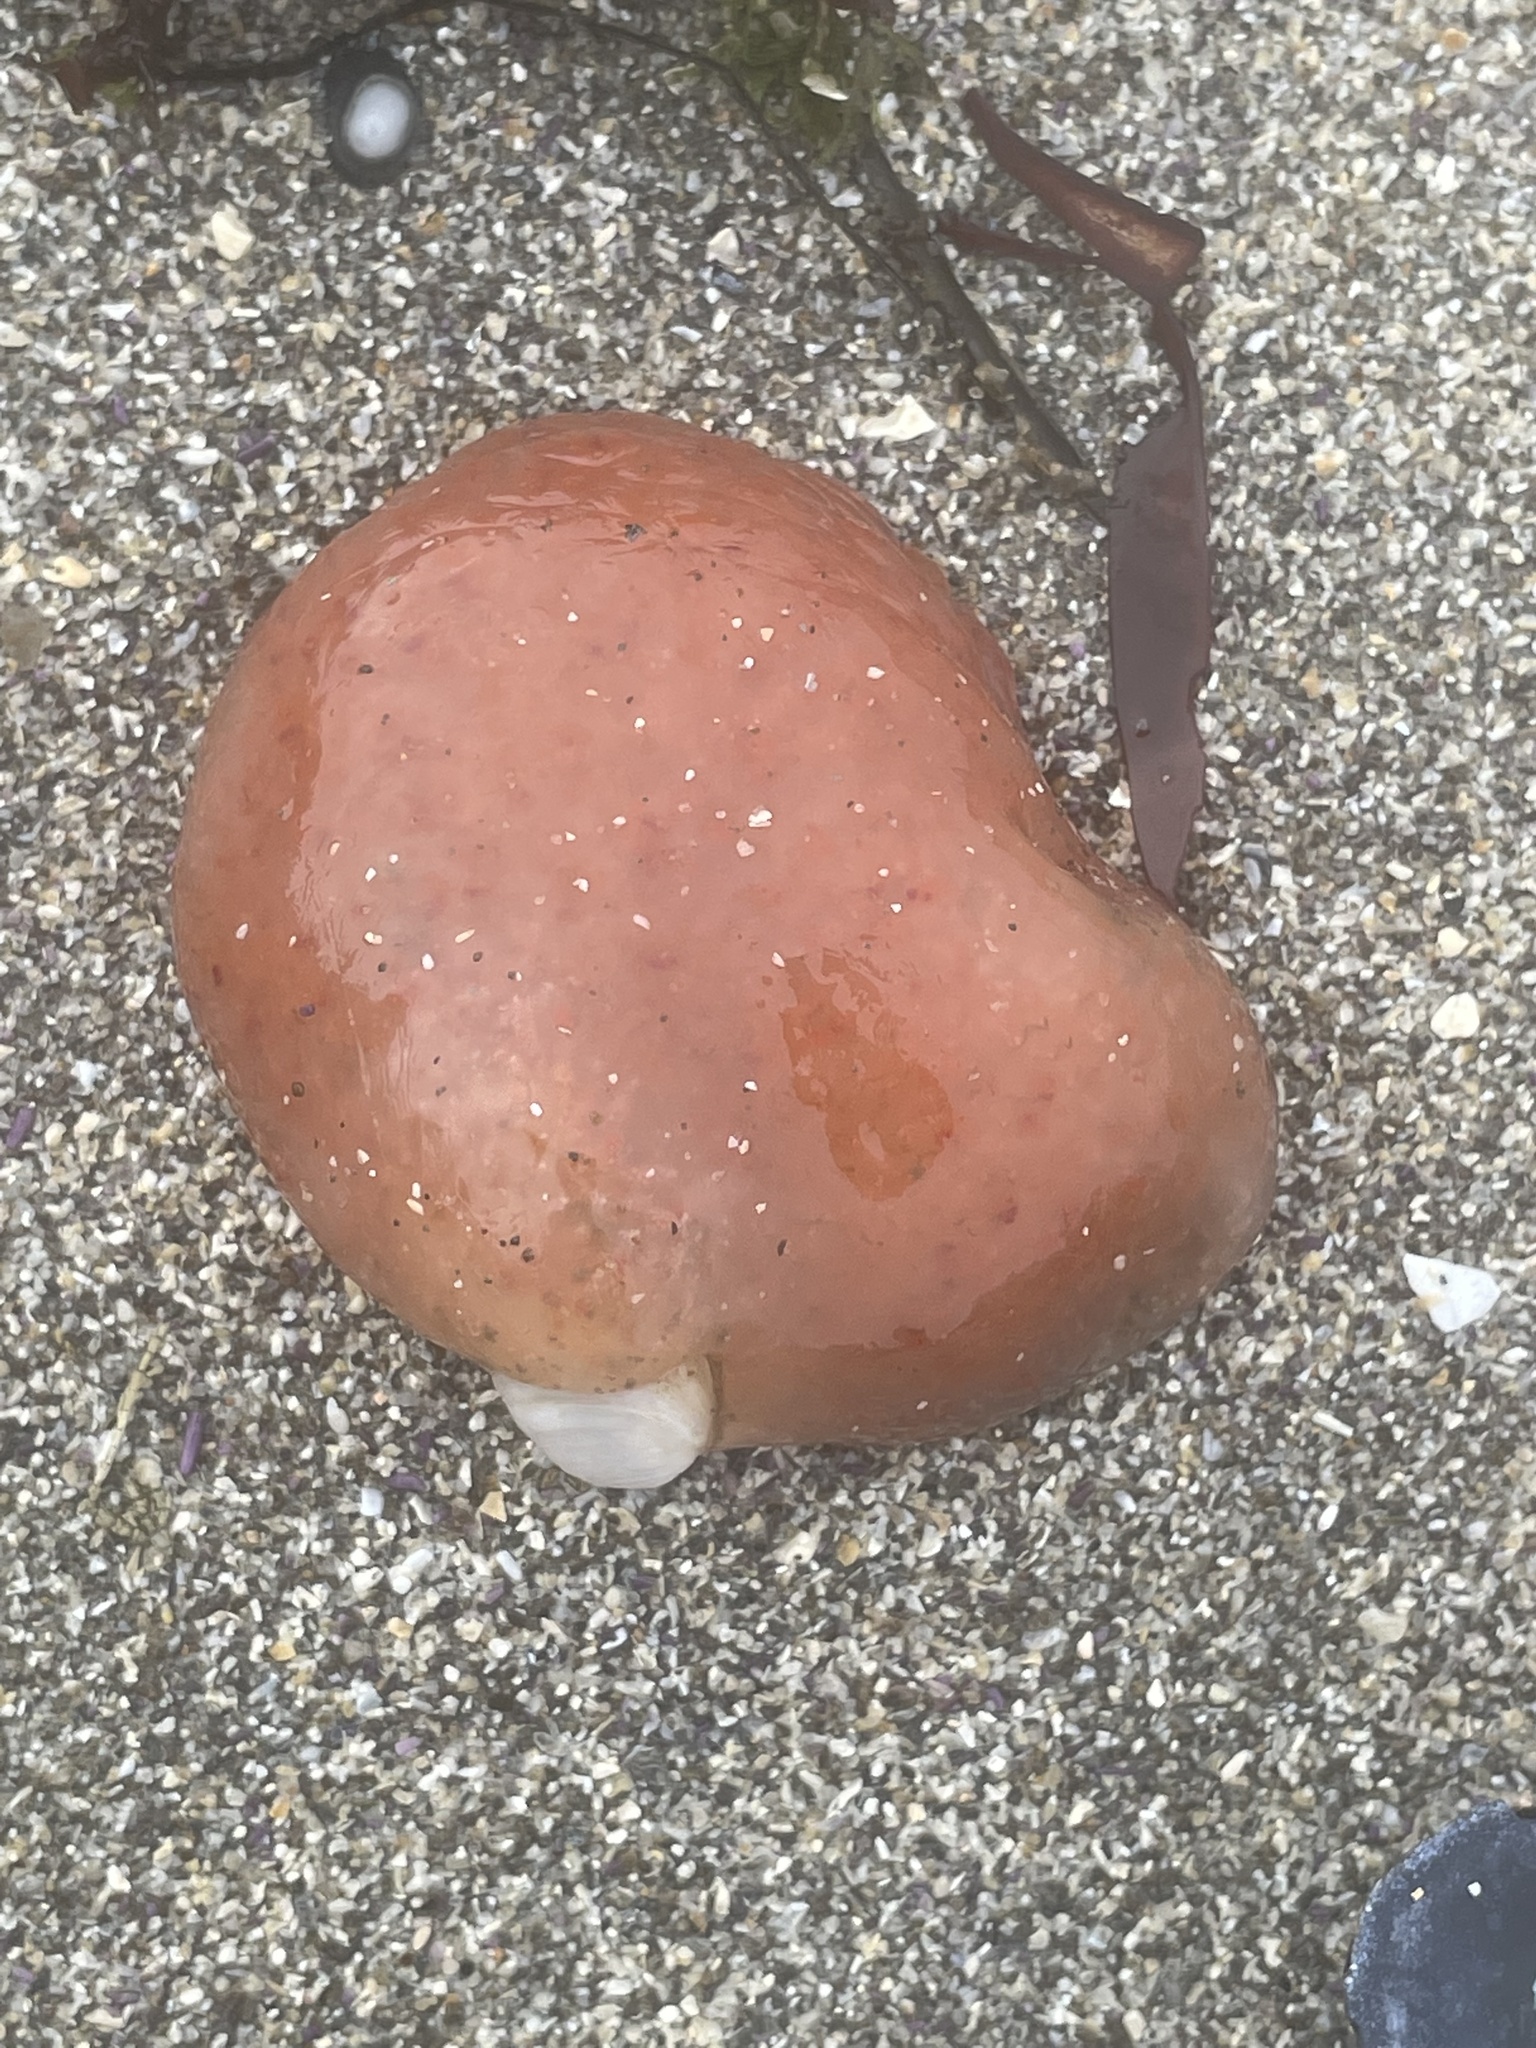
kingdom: Animalia
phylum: Chordata
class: Ascidiacea
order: Aplousobranchia
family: Polyclinidae
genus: Aplidium
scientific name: Aplidium californicum
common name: Sea pork
